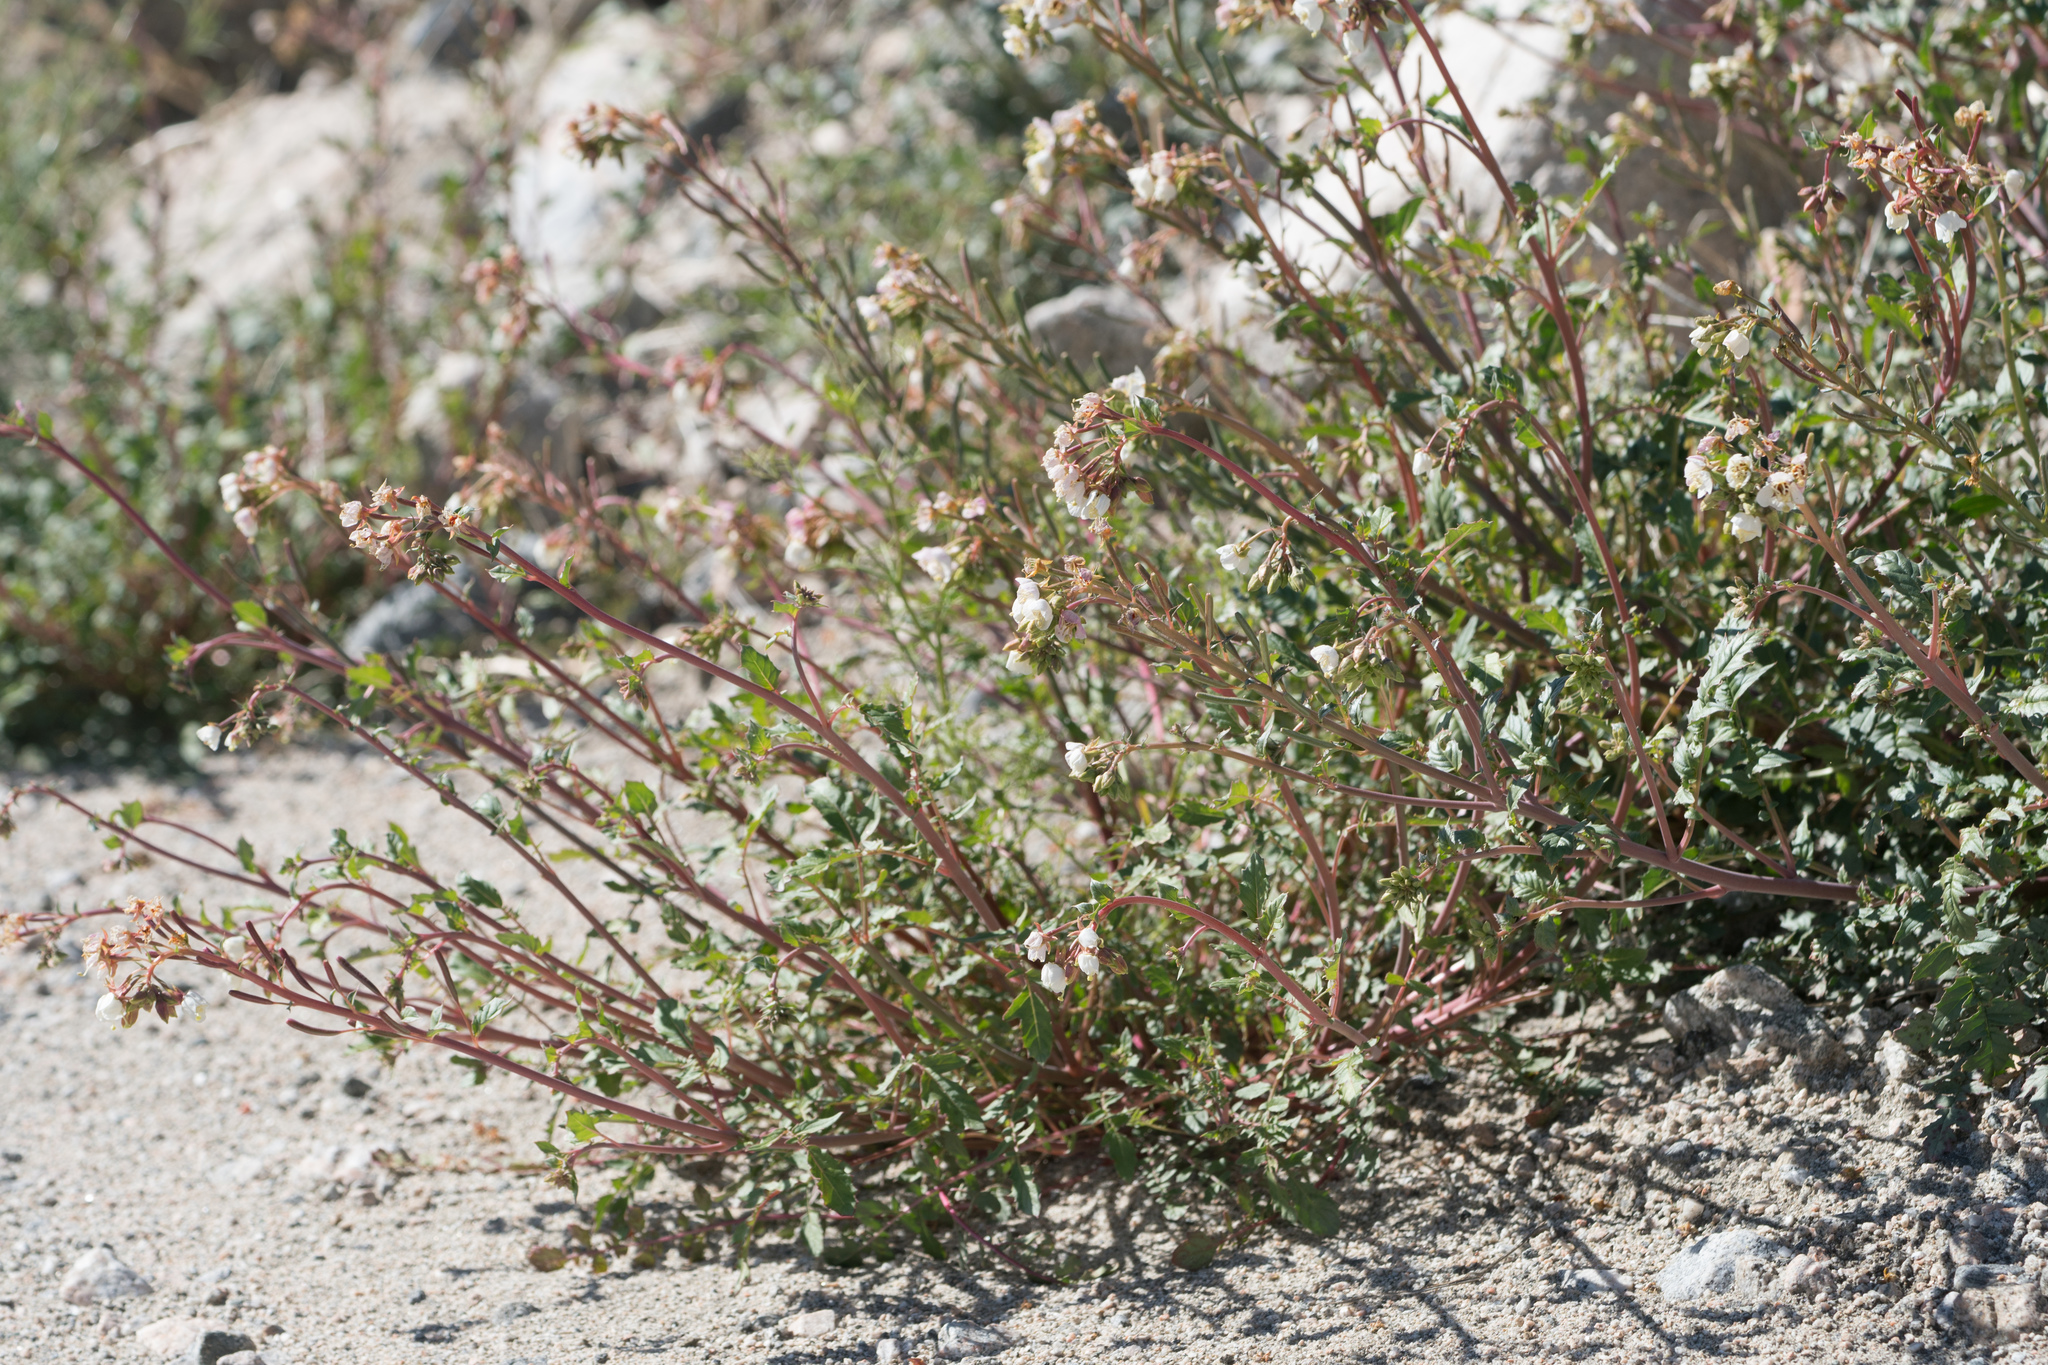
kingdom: Plantae
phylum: Tracheophyta
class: Magnoliopsida
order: Myrtales
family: Onagraceae
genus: Chylismia
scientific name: Chylismia claviformis
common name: Browneyes
